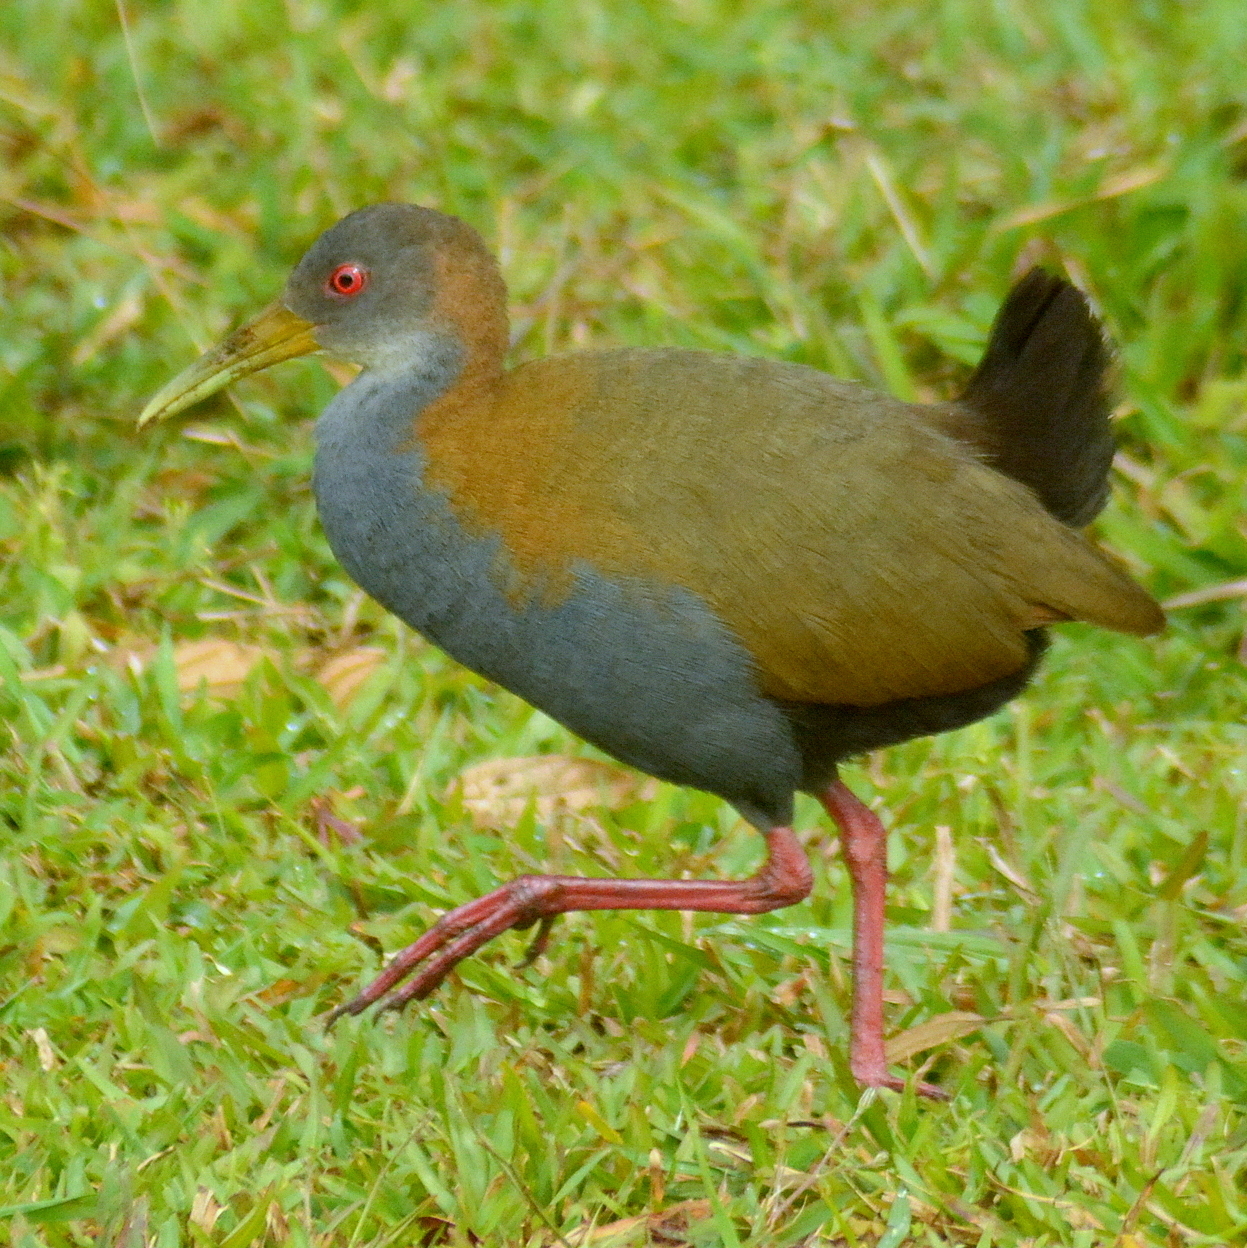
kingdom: Animalia
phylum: Chordata
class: Aves
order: Gruiformes
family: Rallidae
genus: Aramides
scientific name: Aramides saracura
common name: Slaty-breasted wood rail
